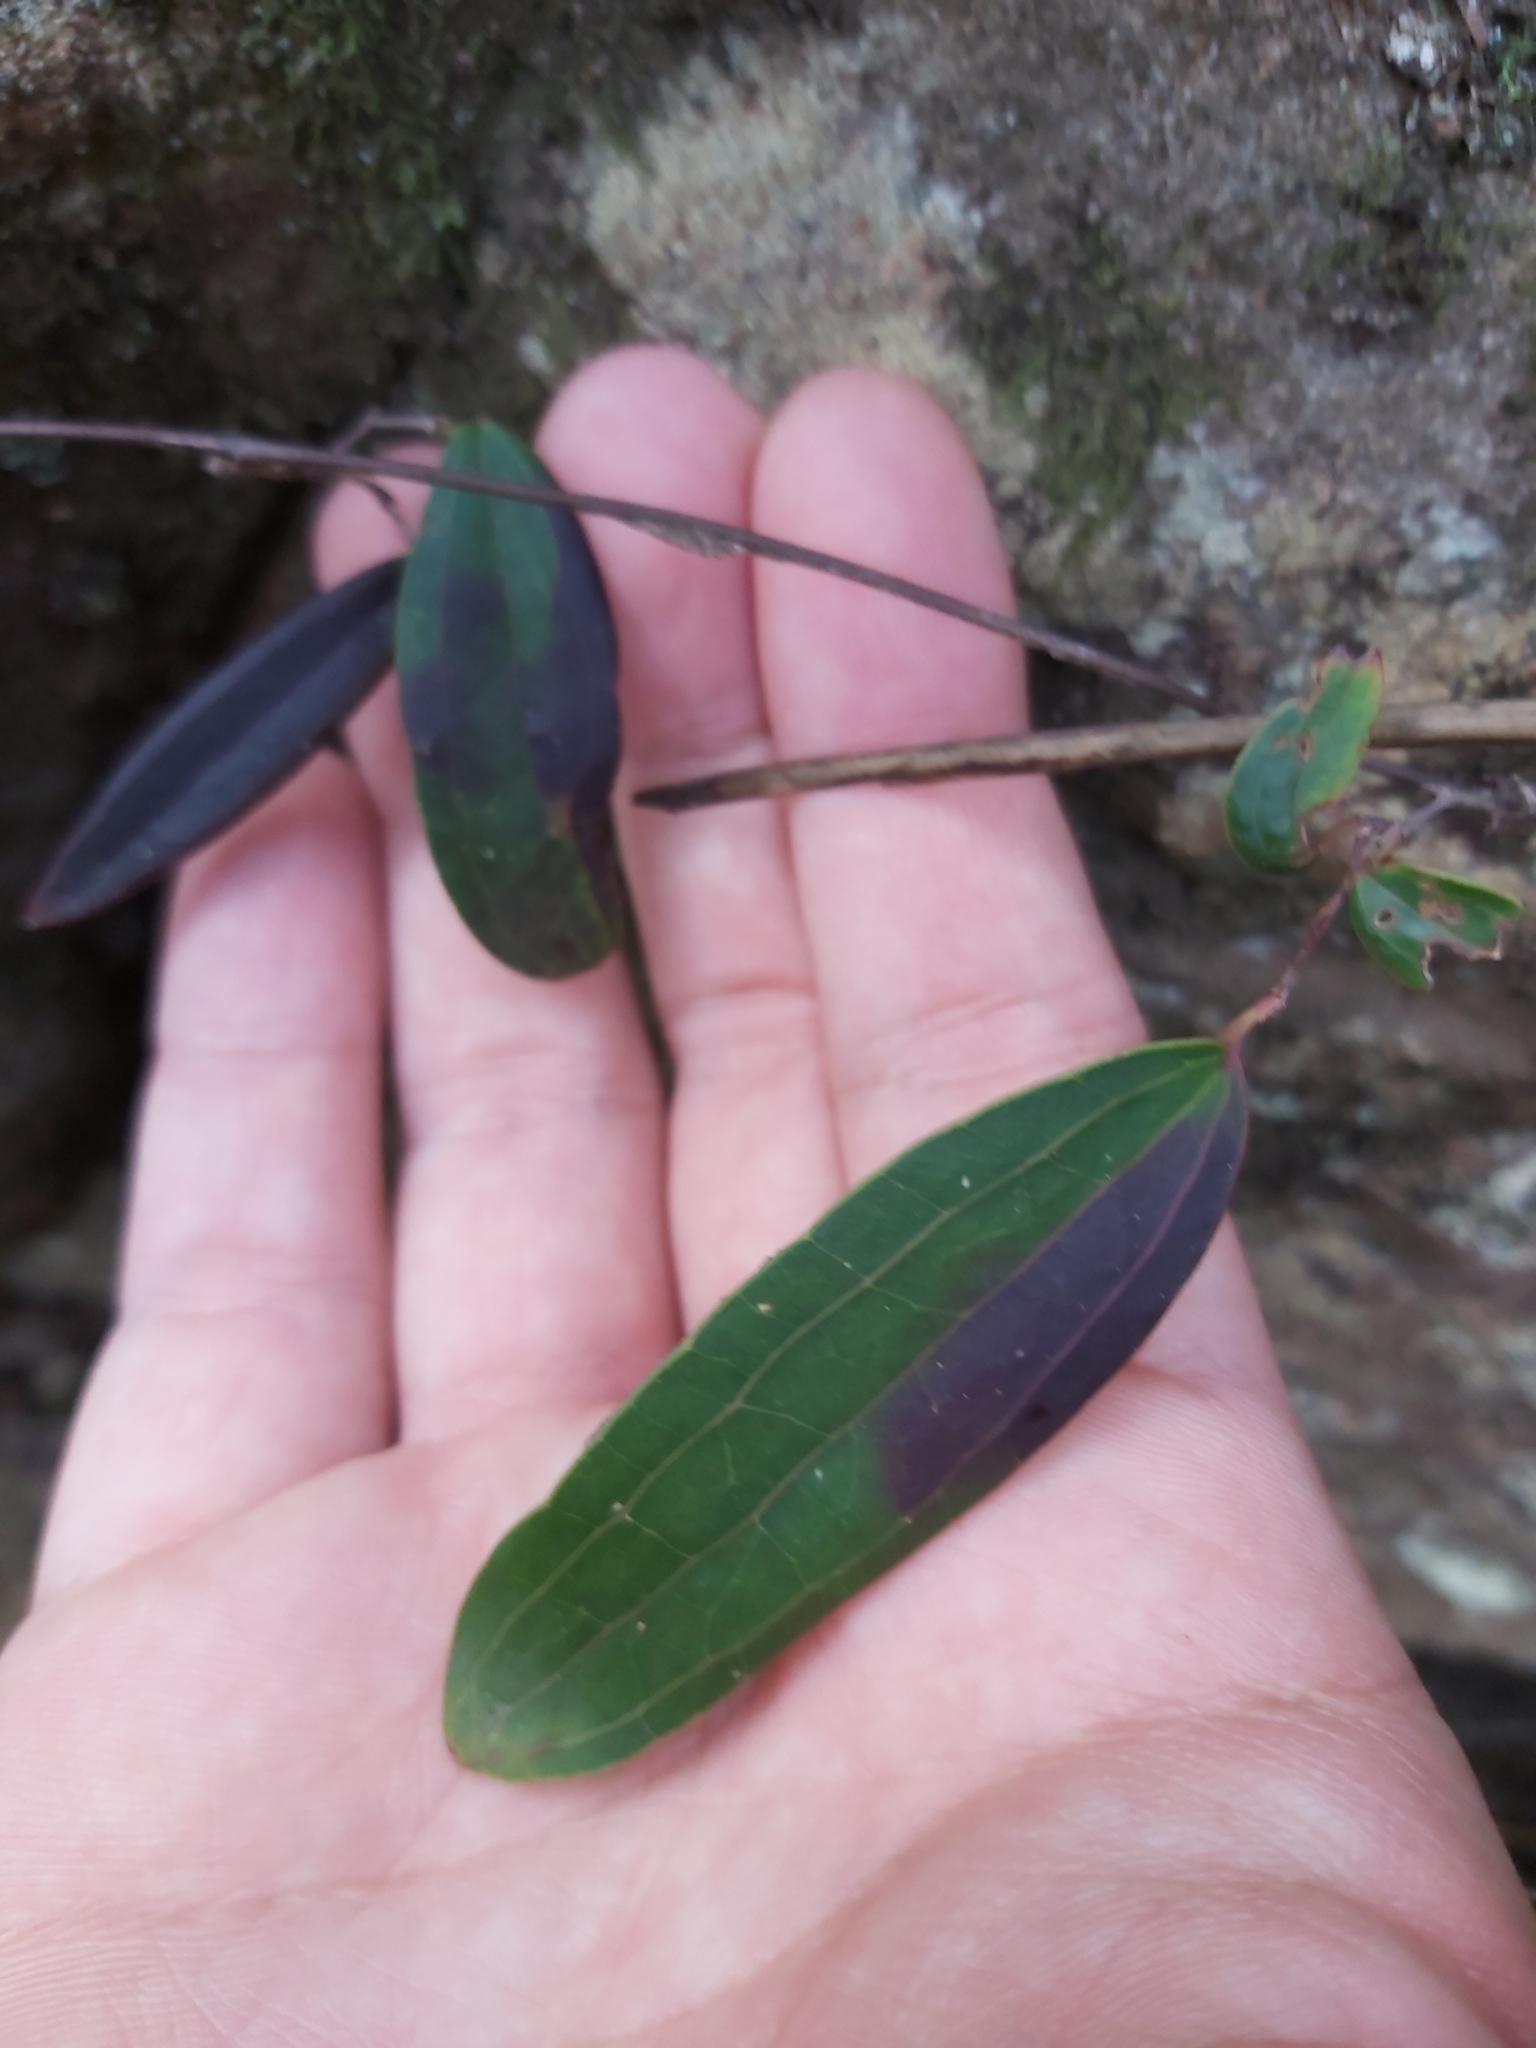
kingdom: Plantae
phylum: Tracheophyta
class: Liliopsida
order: Liliales
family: Smilacaceae
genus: Smilax
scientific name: Smilax glyciphylla
